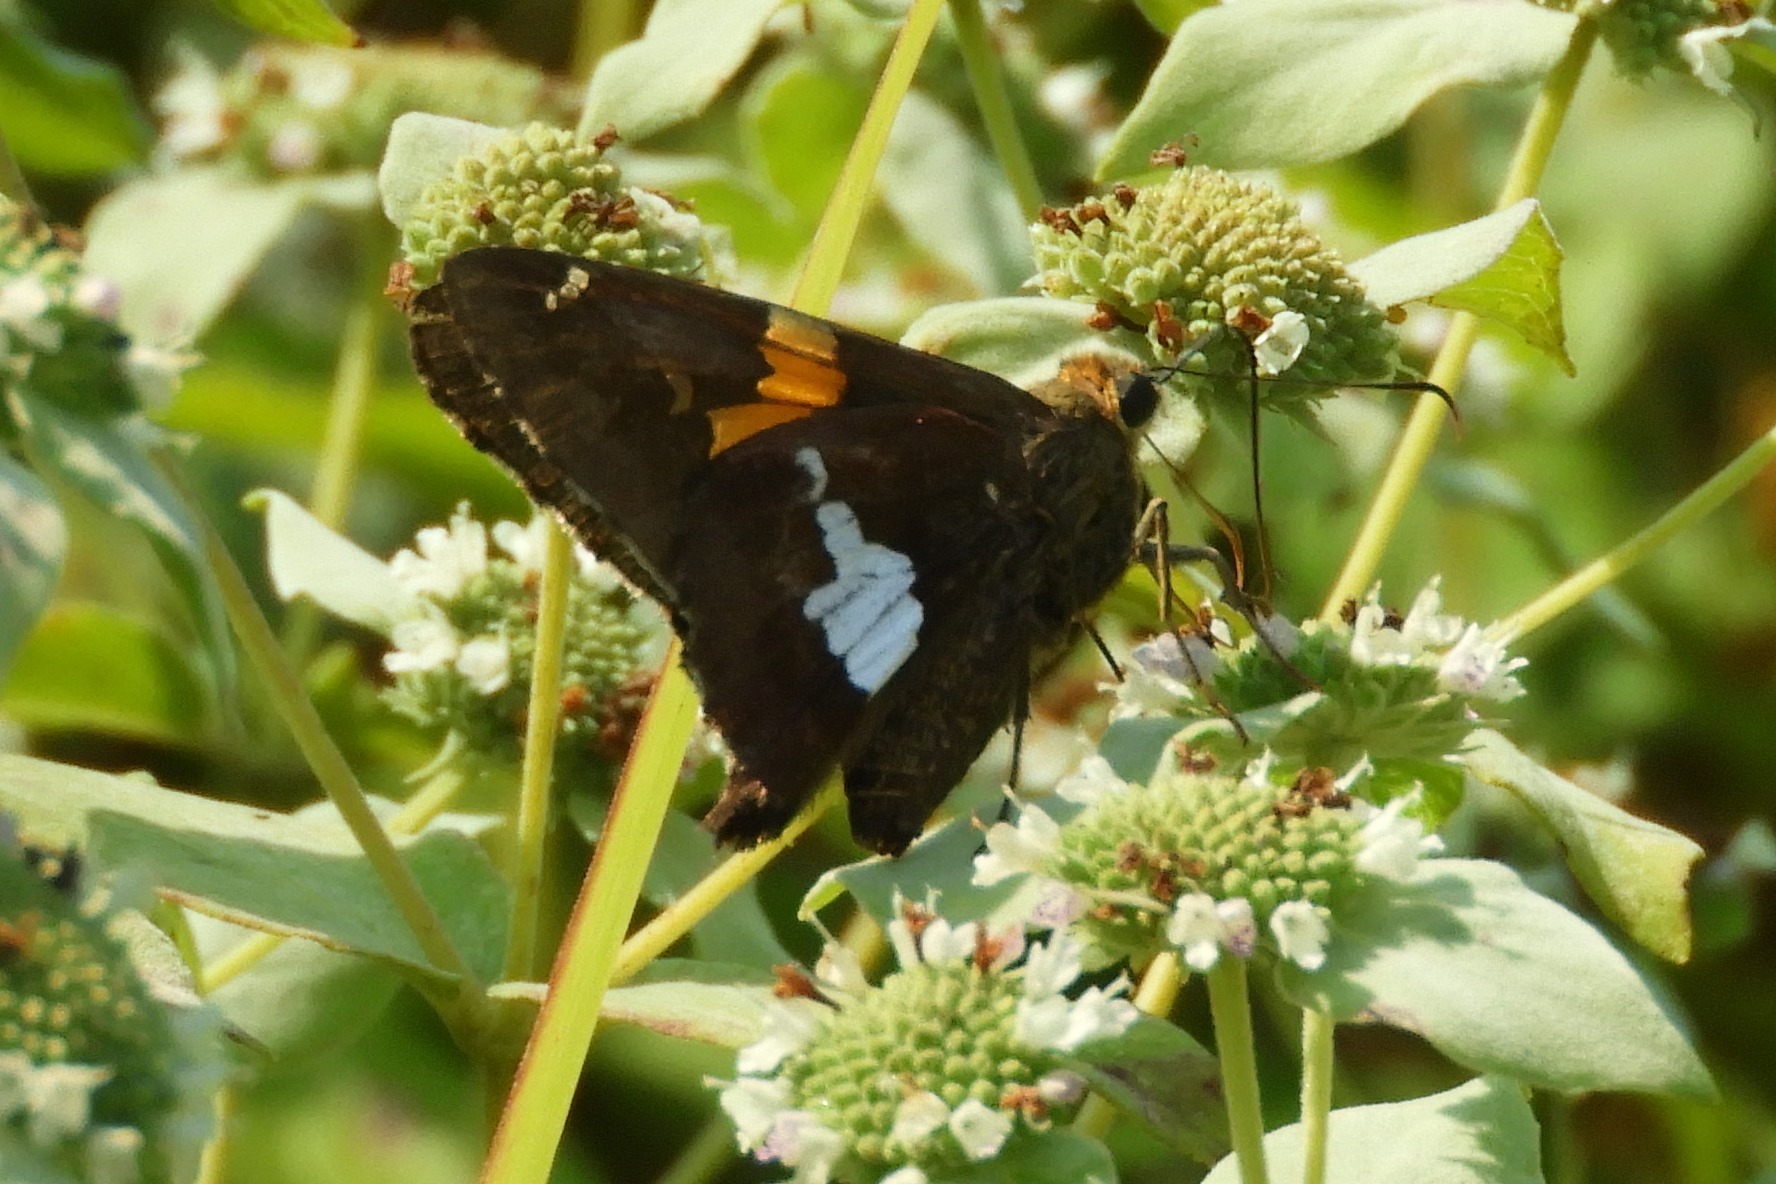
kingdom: Animalia
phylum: Arthropoda
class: Insecta
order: Lepidoptera
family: Hesperiidae
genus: Epargyreus
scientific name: Epargyreus clarus
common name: Silver-spotted skipper
